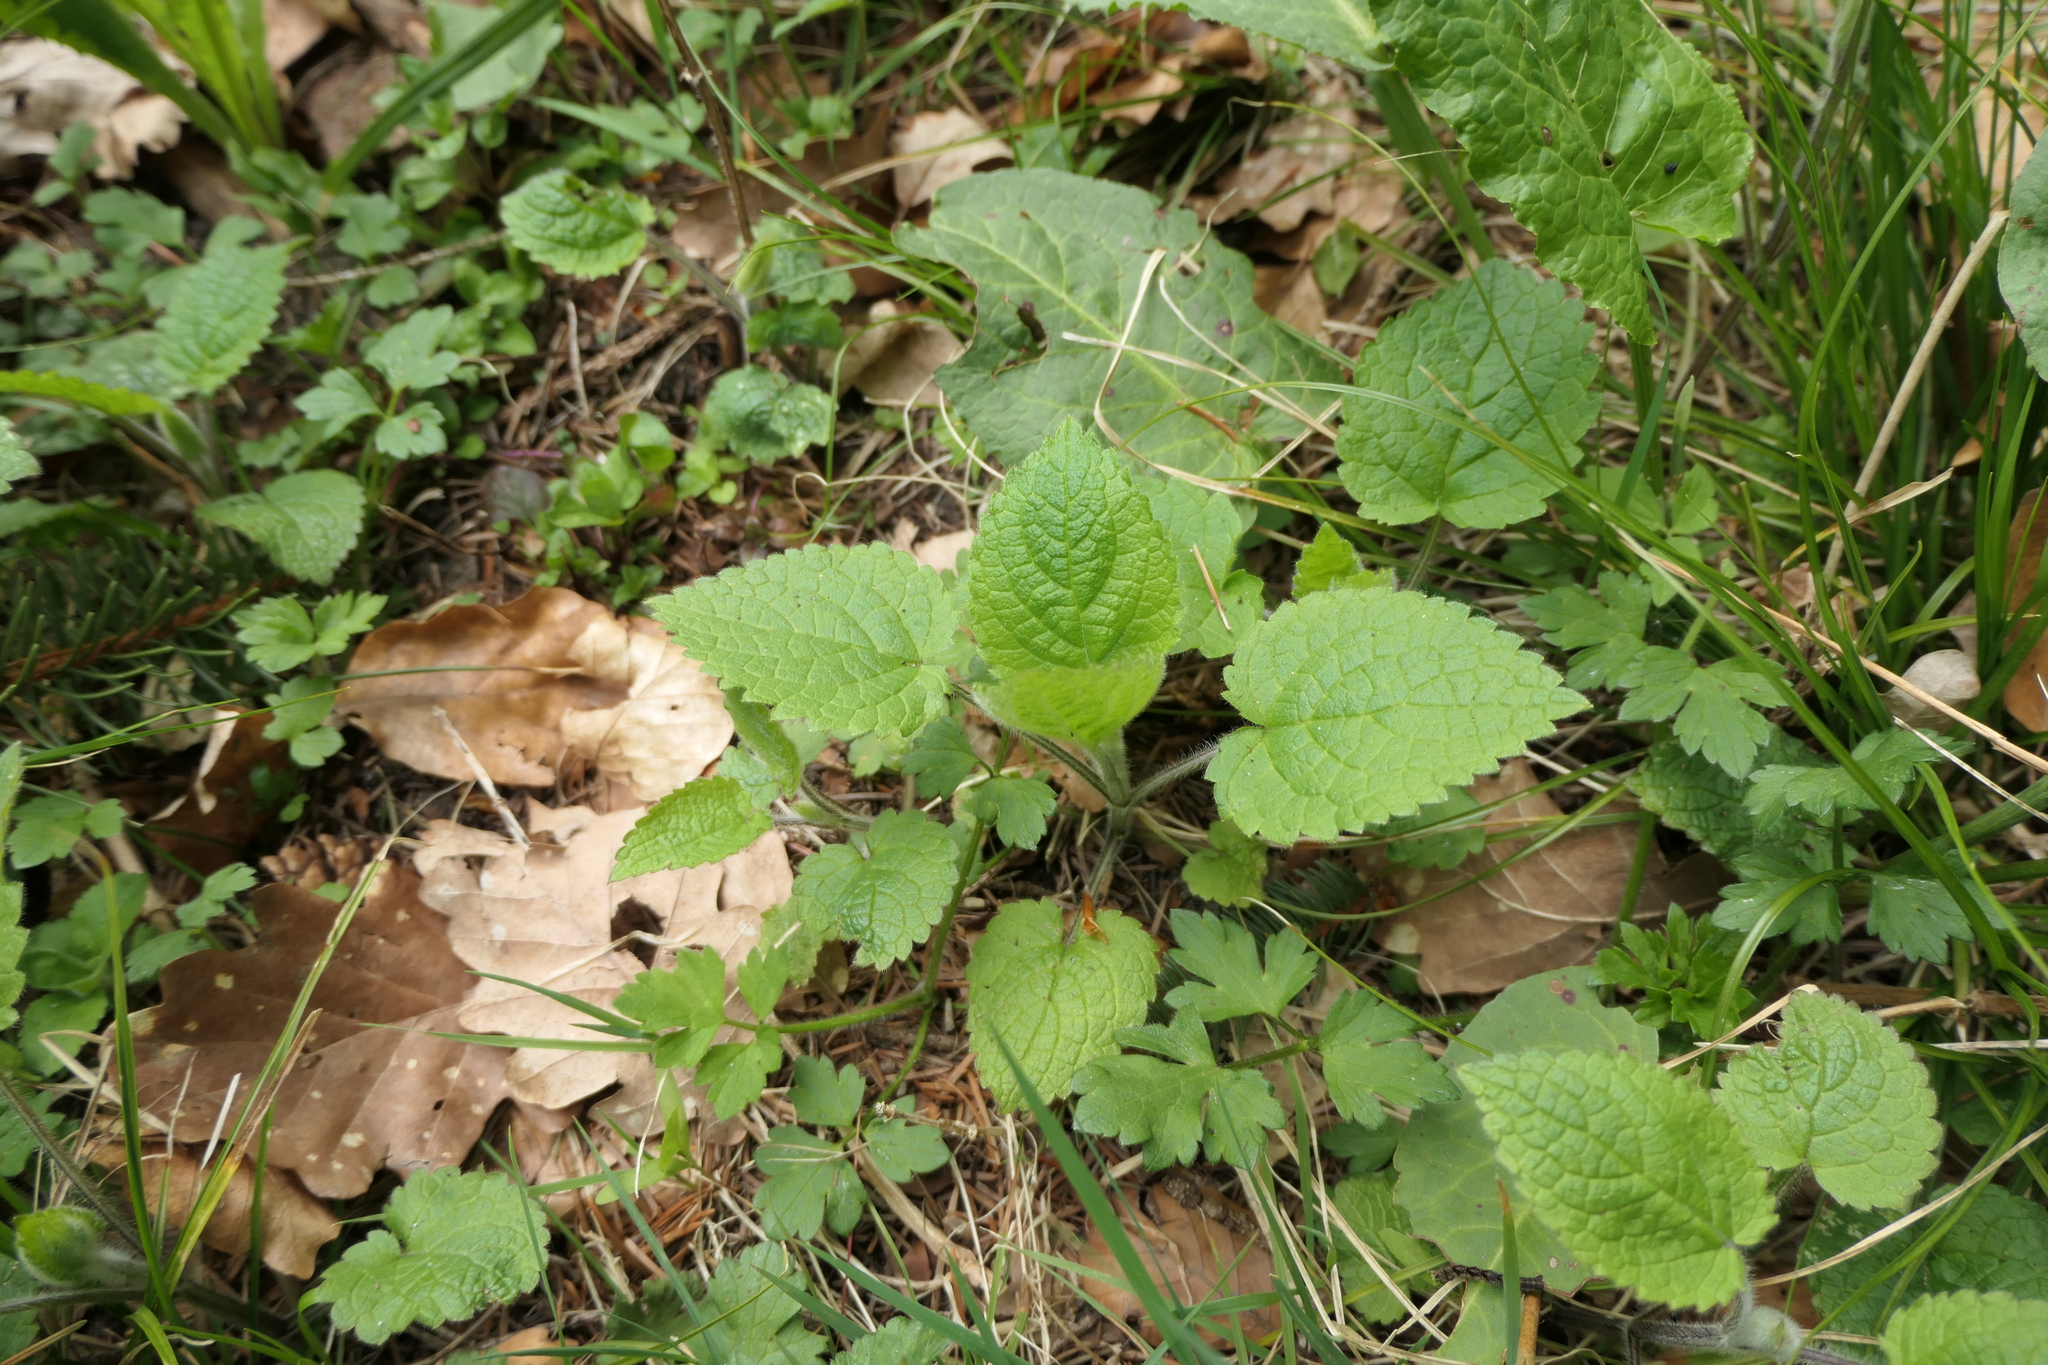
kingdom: Plantae
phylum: Tracheophyta
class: Magnoliopsida
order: Lamiales
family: Lamiaceae
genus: Stachys
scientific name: Stachys sylvatica
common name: Hedge woundwort
